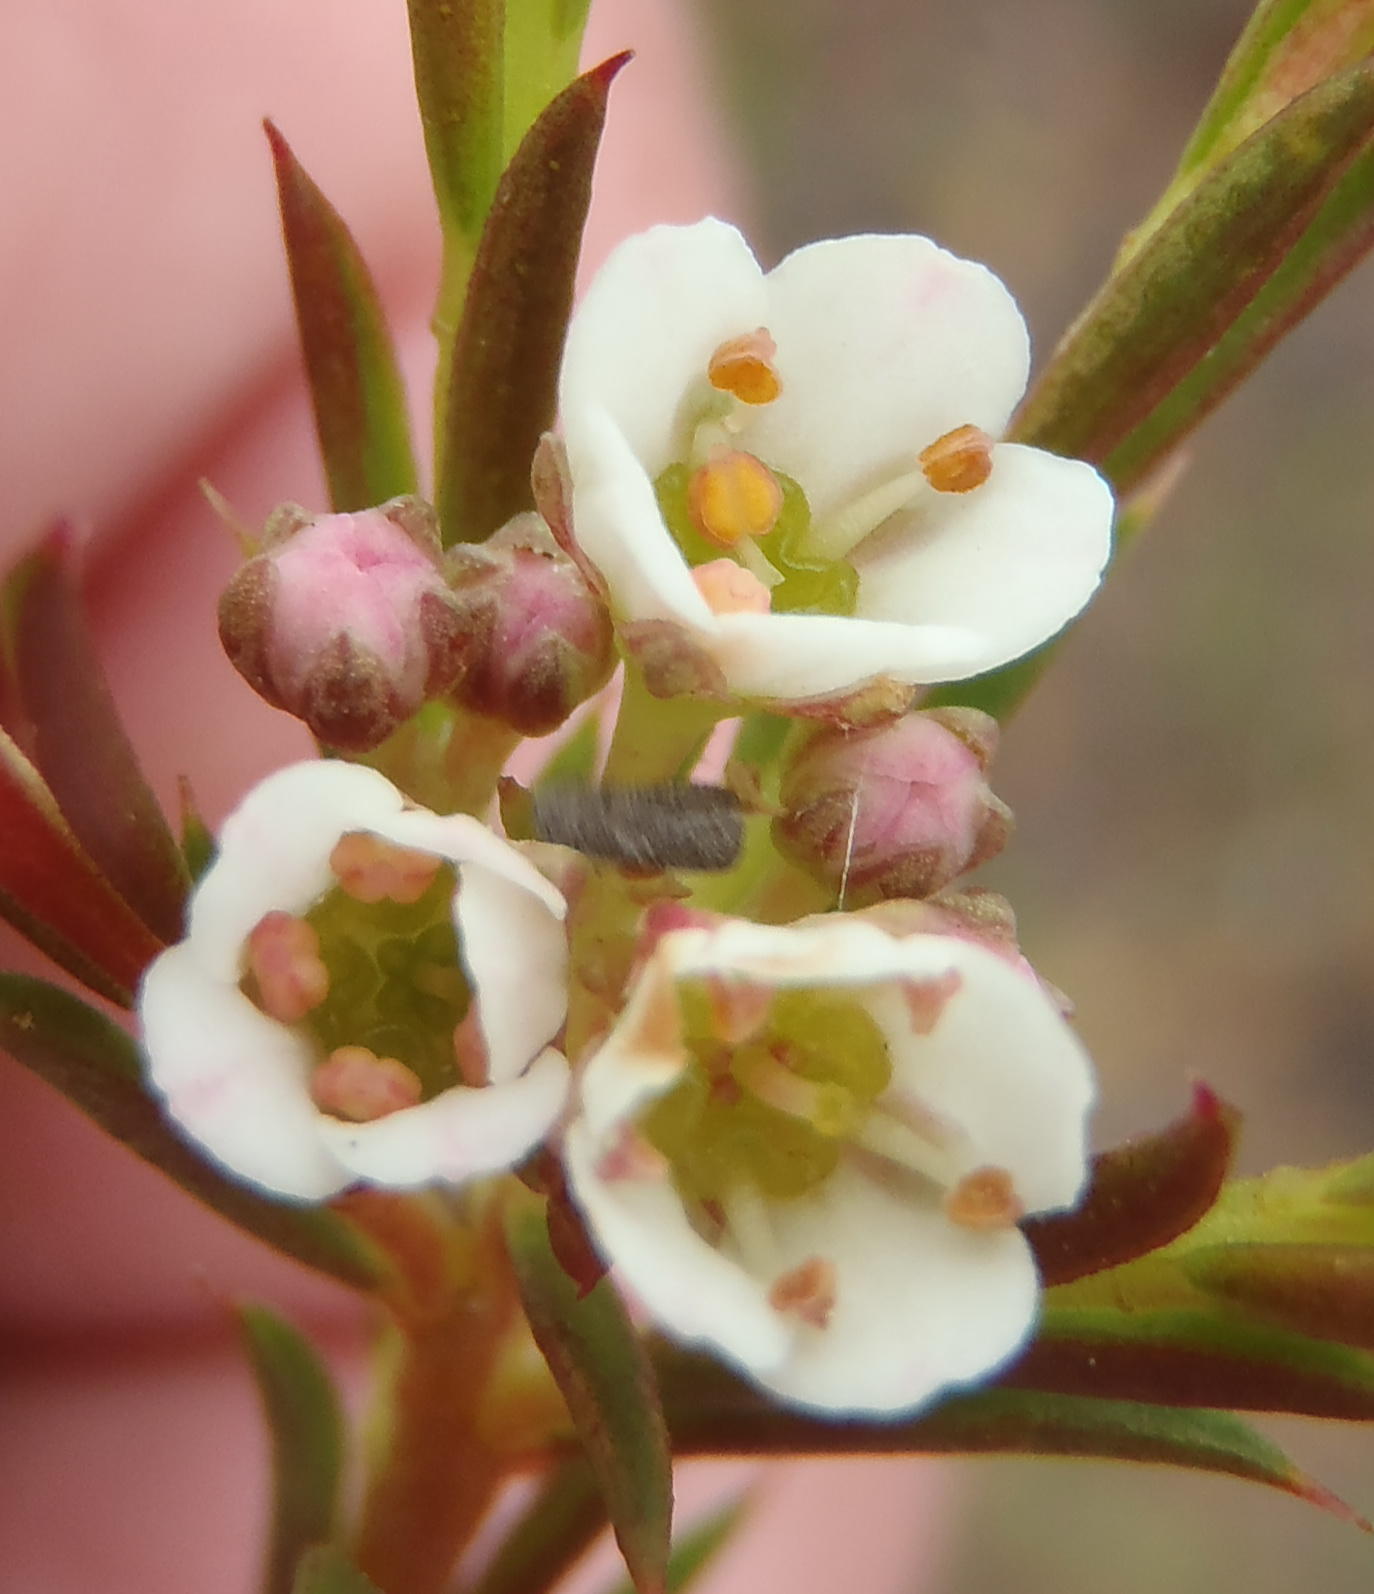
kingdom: Plantae
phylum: Tracheophyta
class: Magnoliopsida
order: Sapindales
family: Rutaceae
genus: Diosma
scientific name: Diosma hirsuta
